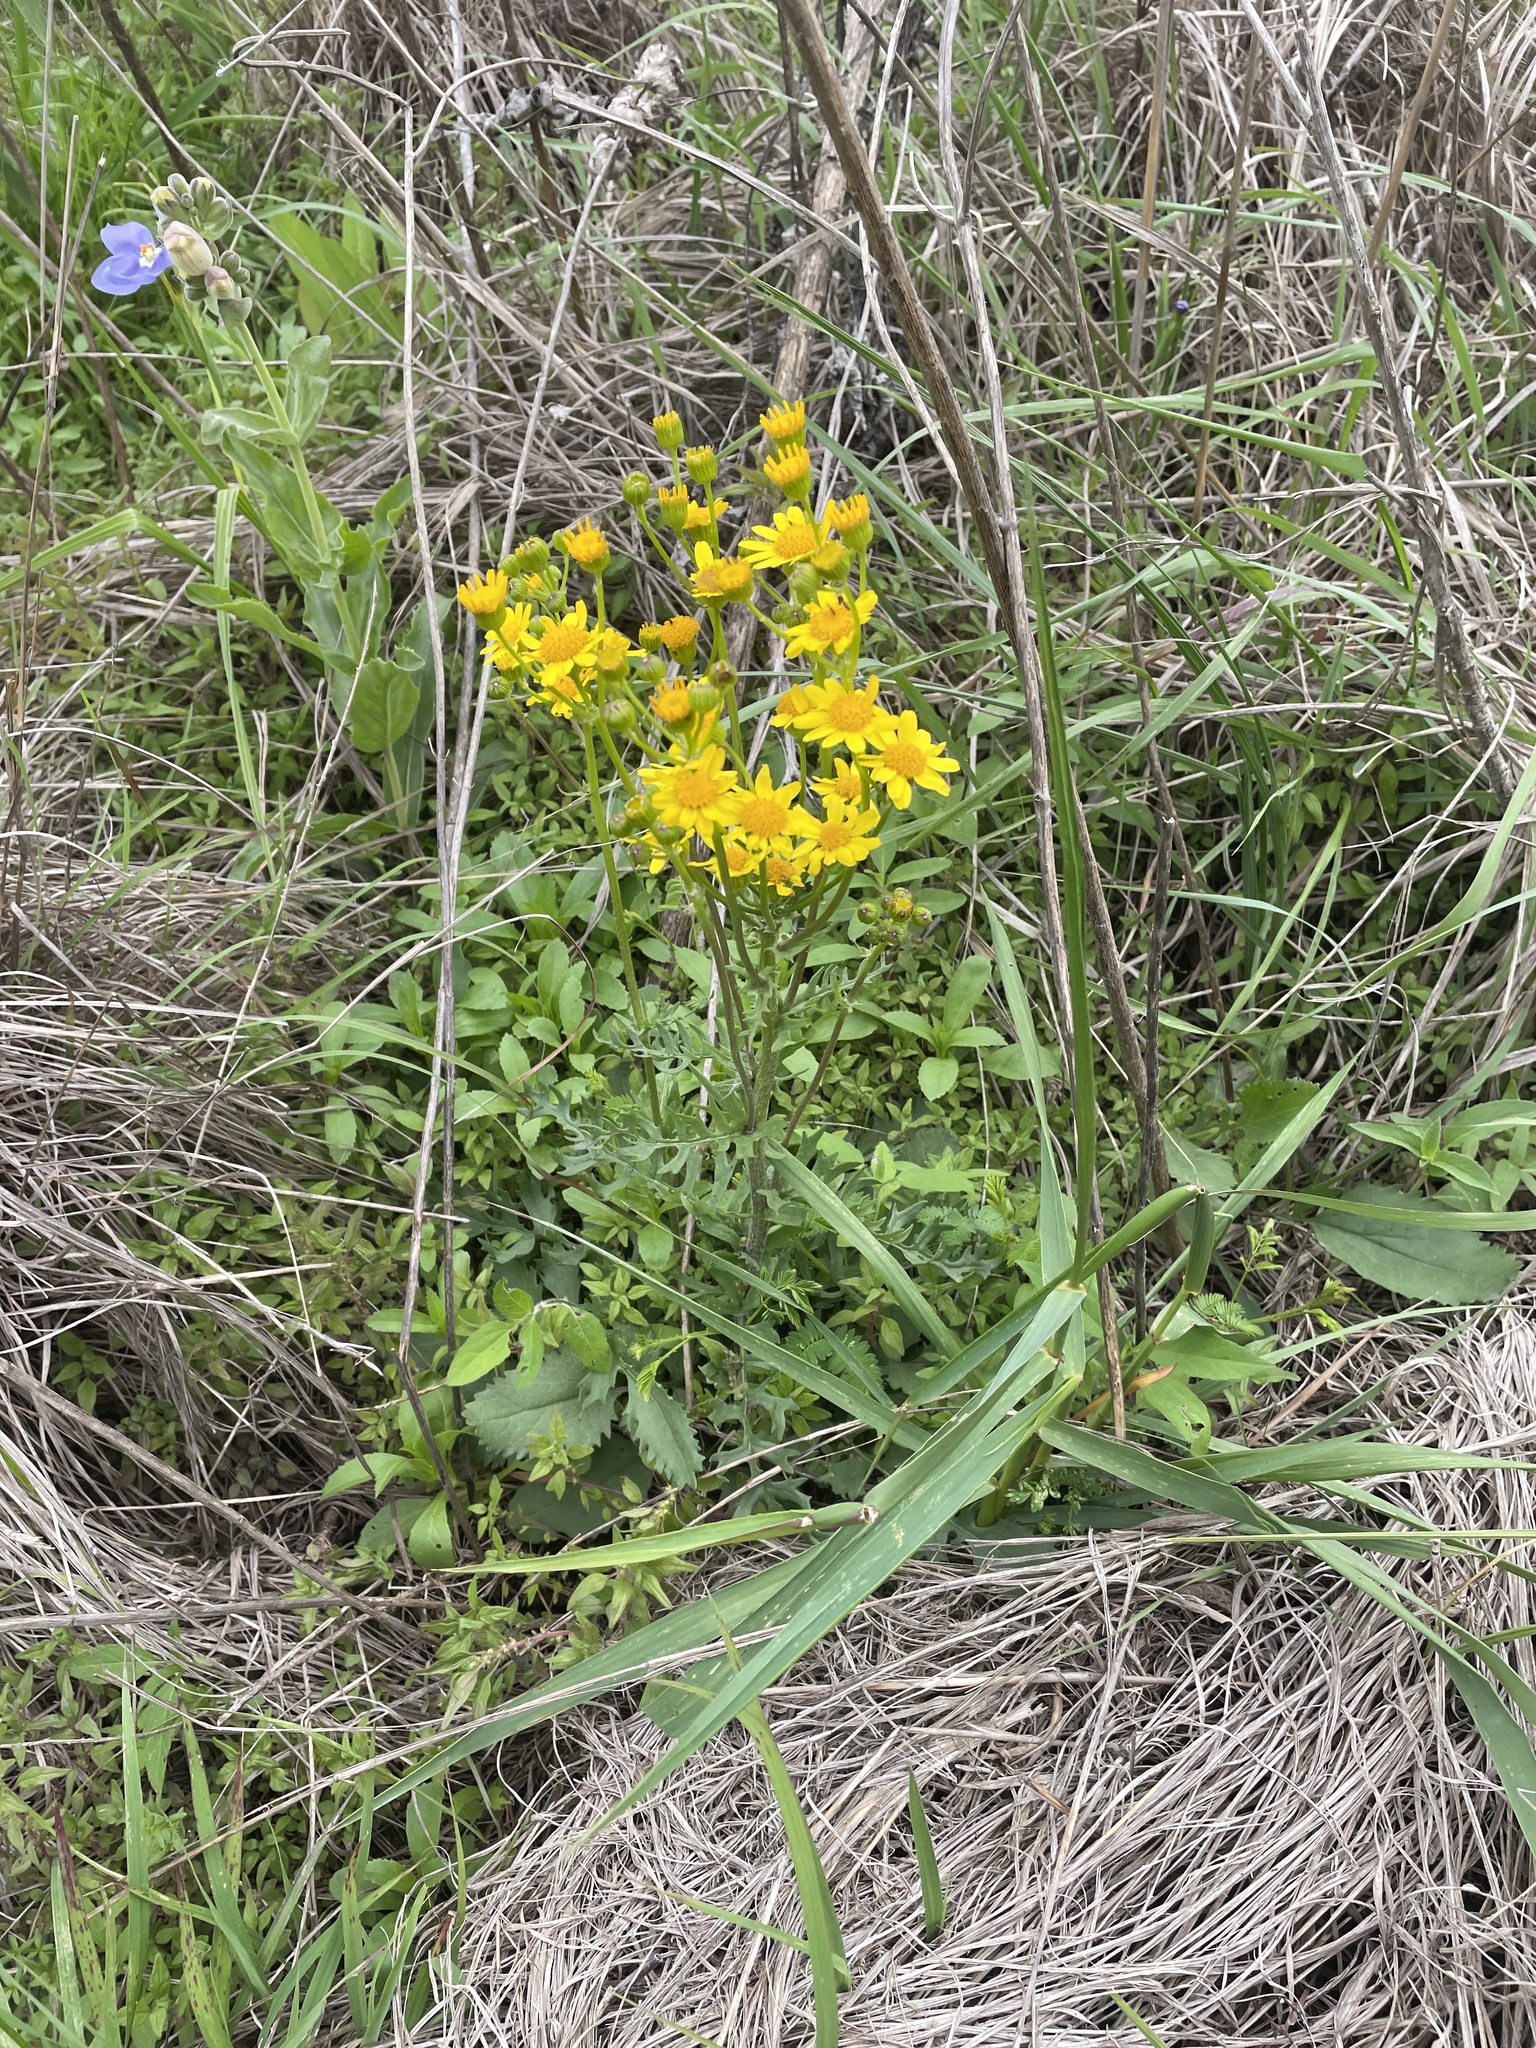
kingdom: Plantae
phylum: Tracheophyta
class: Magnoliopsida
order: Asterales
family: Asteraceae
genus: Packera
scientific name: Packera plattensis
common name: Prairie groundsel
